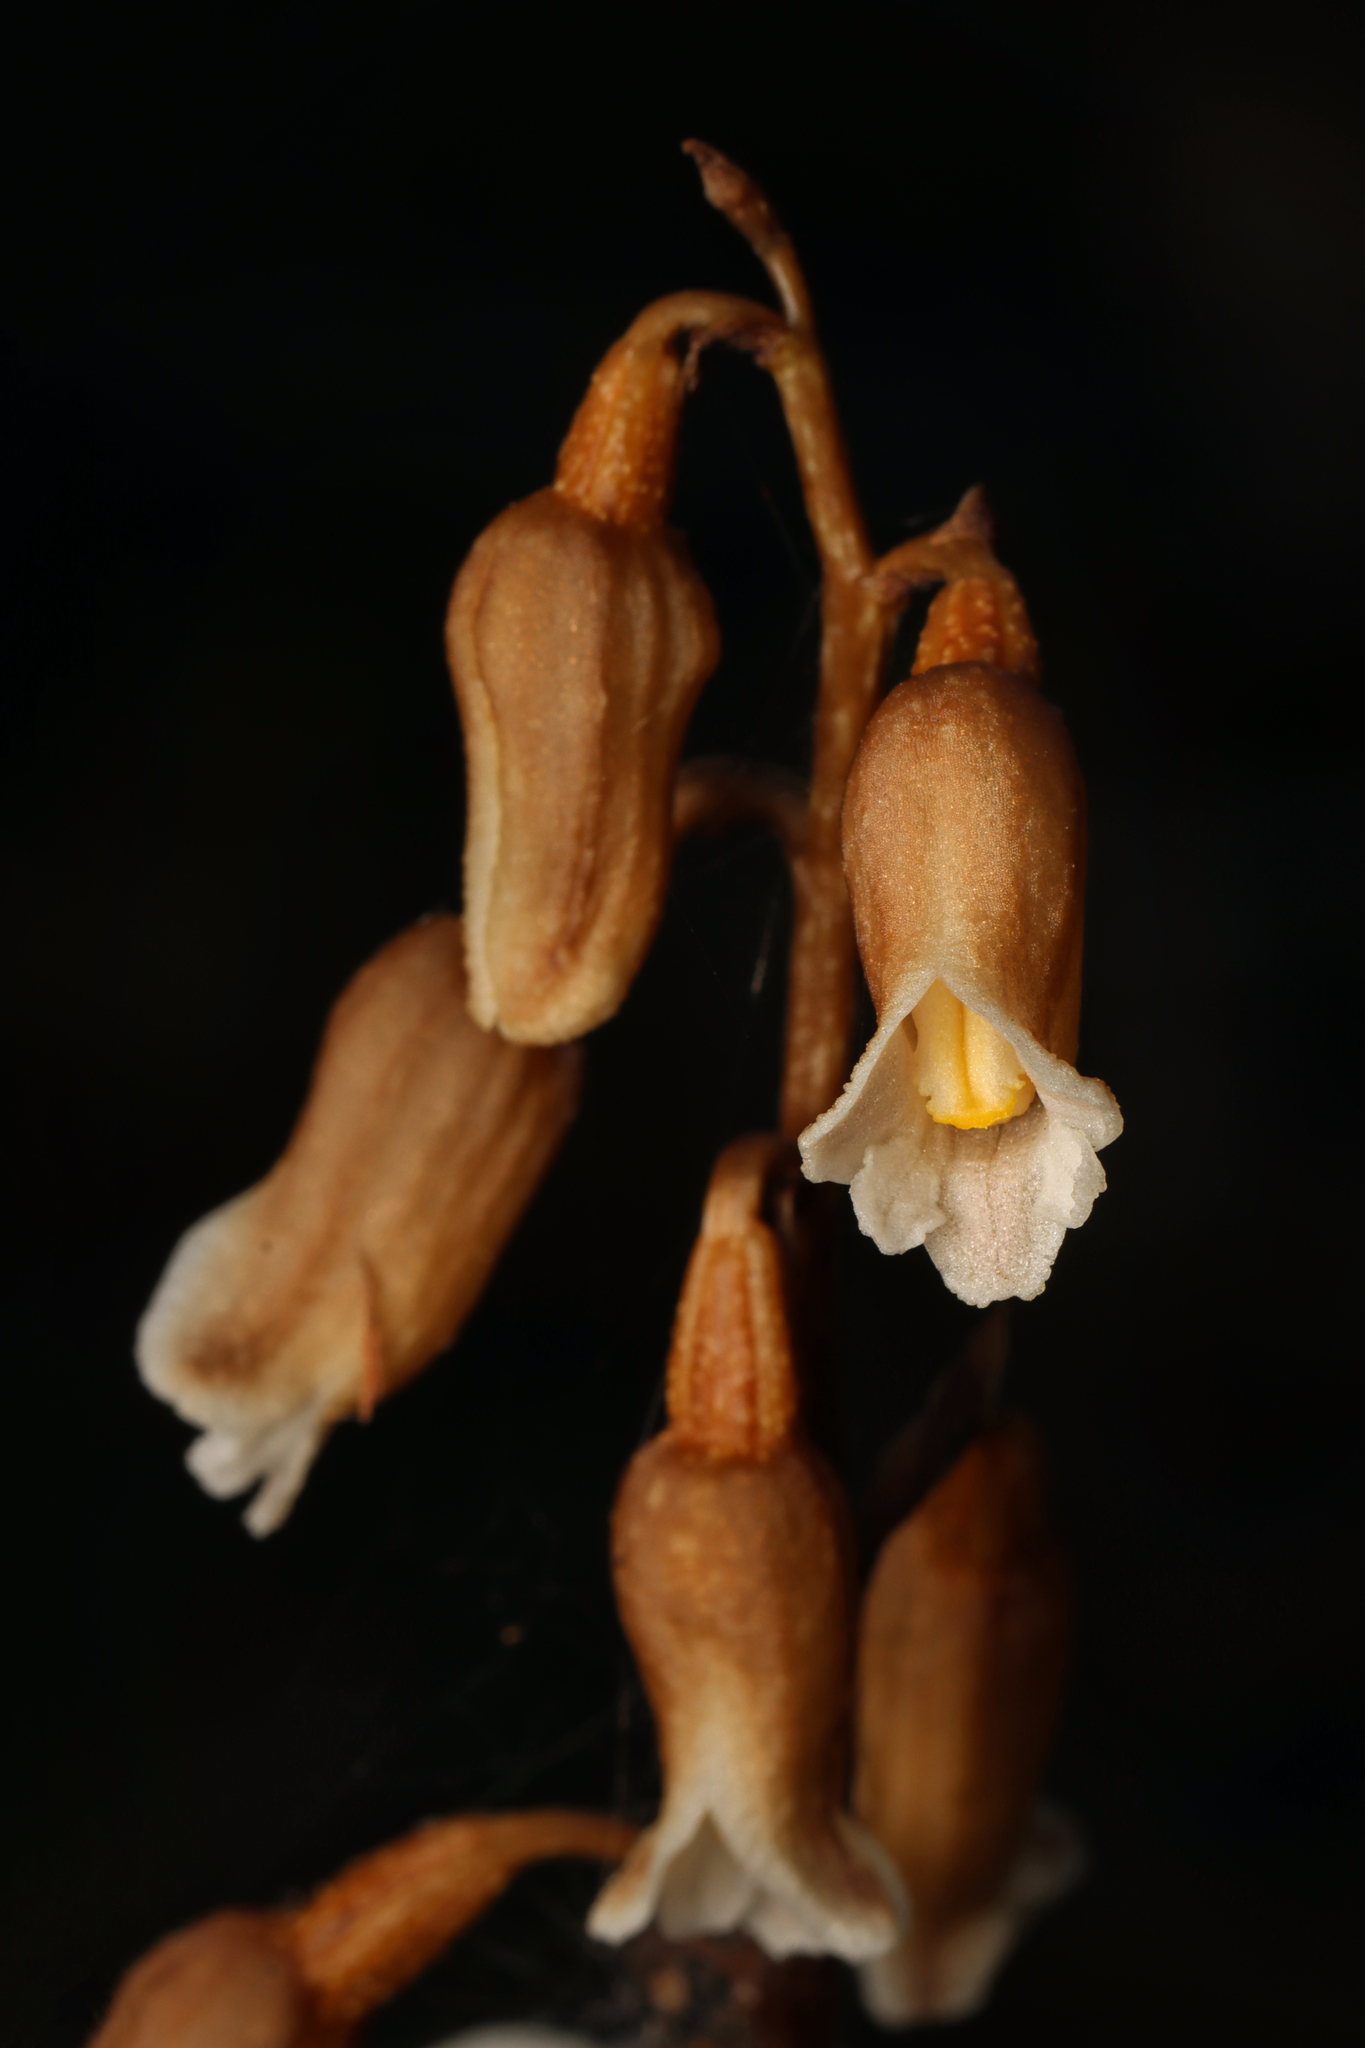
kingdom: Plantae
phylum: Tracheophyta
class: Liliopsida
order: Asparagales
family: Orchidaceae
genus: Gastrodia
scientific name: Gastrodia sesamoides
